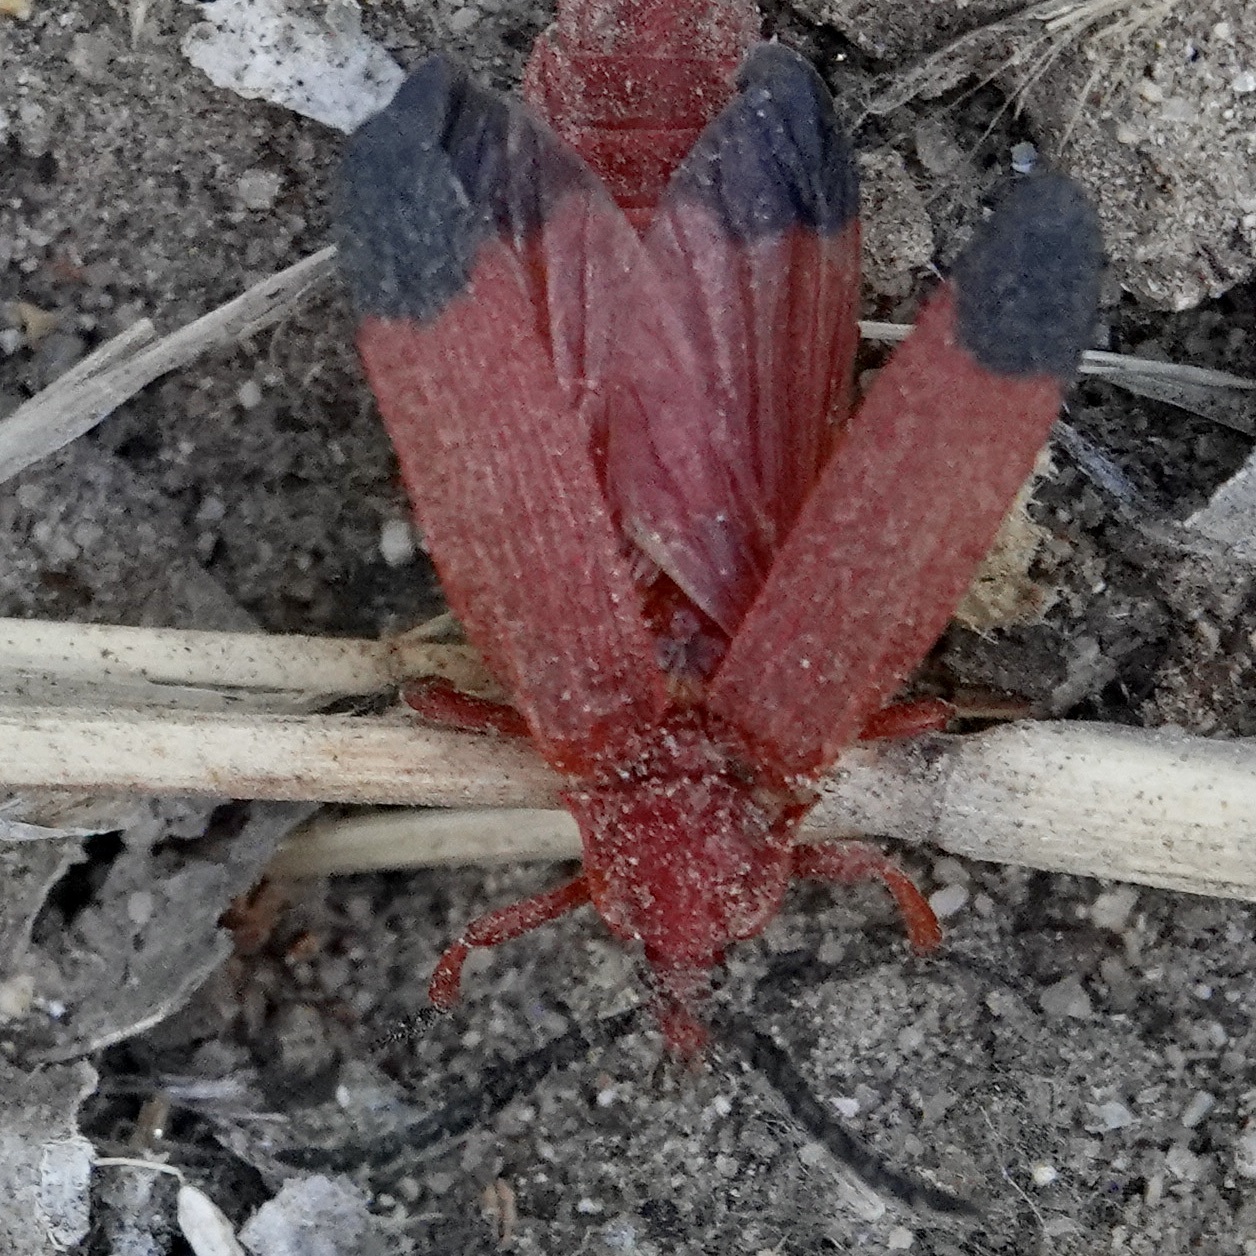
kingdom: Animalia
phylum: Arthropoda
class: Insecta
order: Coleoptera
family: Lycidae
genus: Lycus
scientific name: Lycus sanguineus
